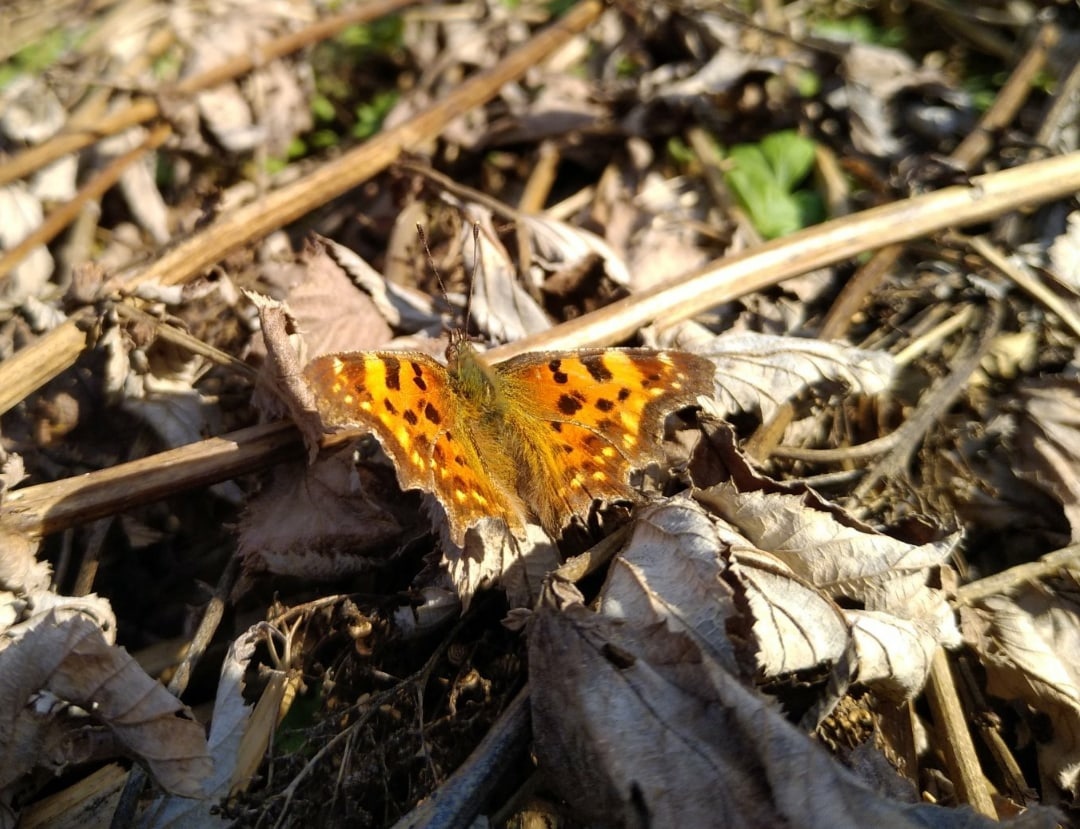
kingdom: Animalia
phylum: Arthropoda
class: Insecta
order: Lepidoptera
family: Nymphalidae
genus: Polygonia
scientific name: Polygonia c-album
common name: Comma
